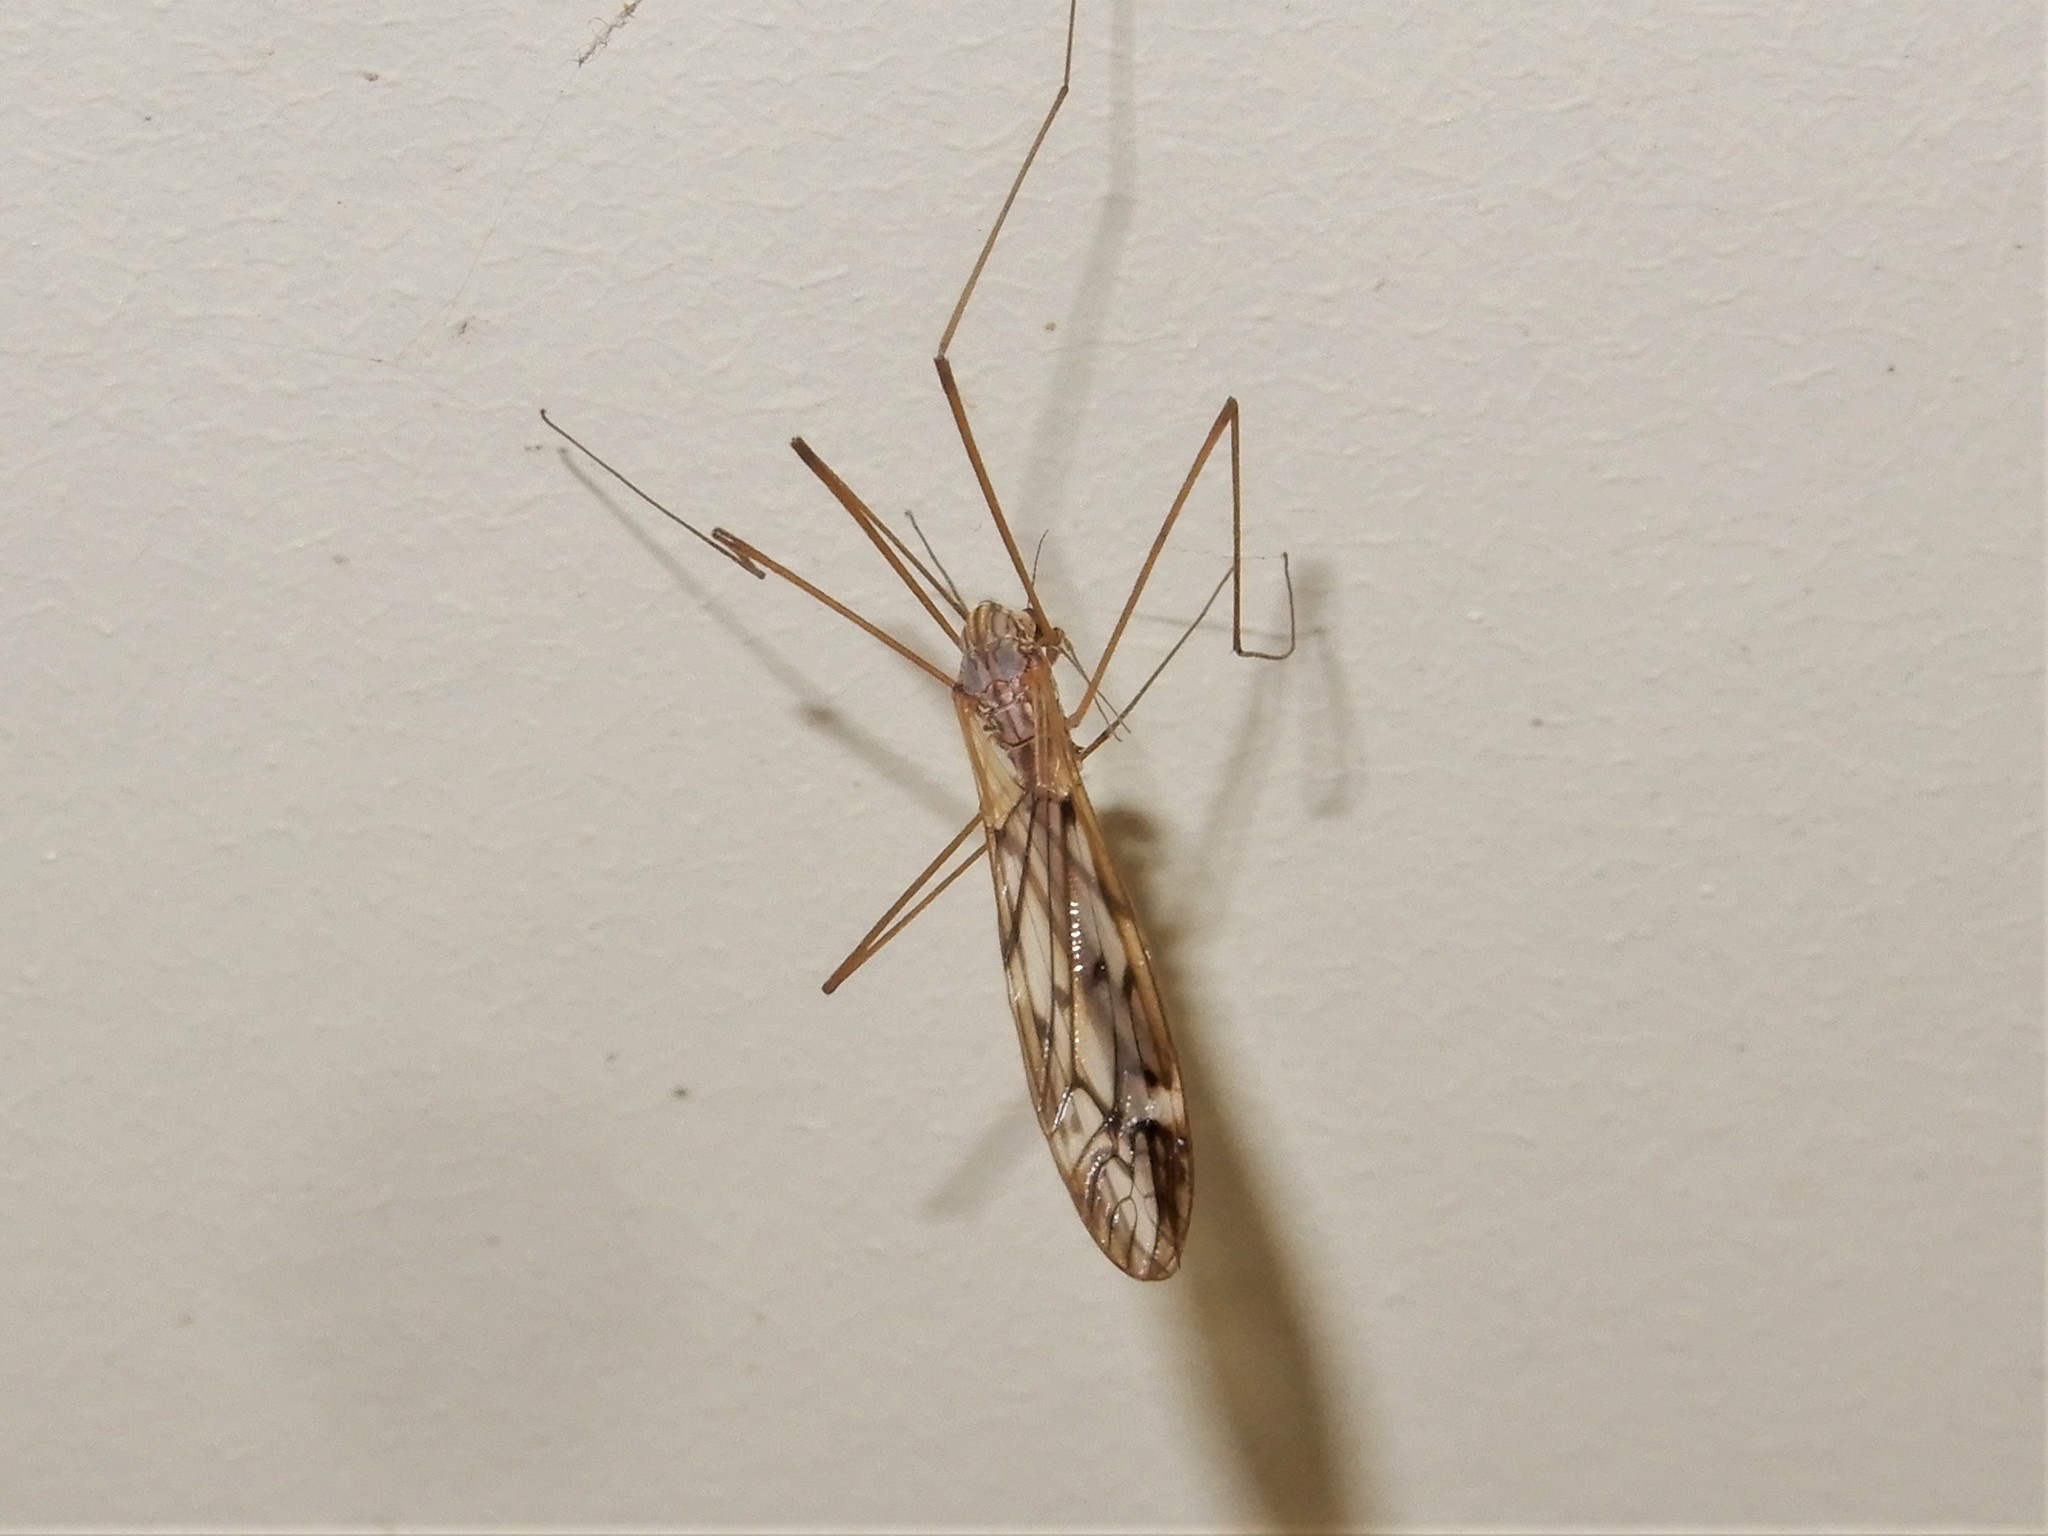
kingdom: Animalia
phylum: Arthropoda
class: Insecta
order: Diptera
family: Tipulidae
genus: Zelandotipula
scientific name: Zelandotipula novarae
